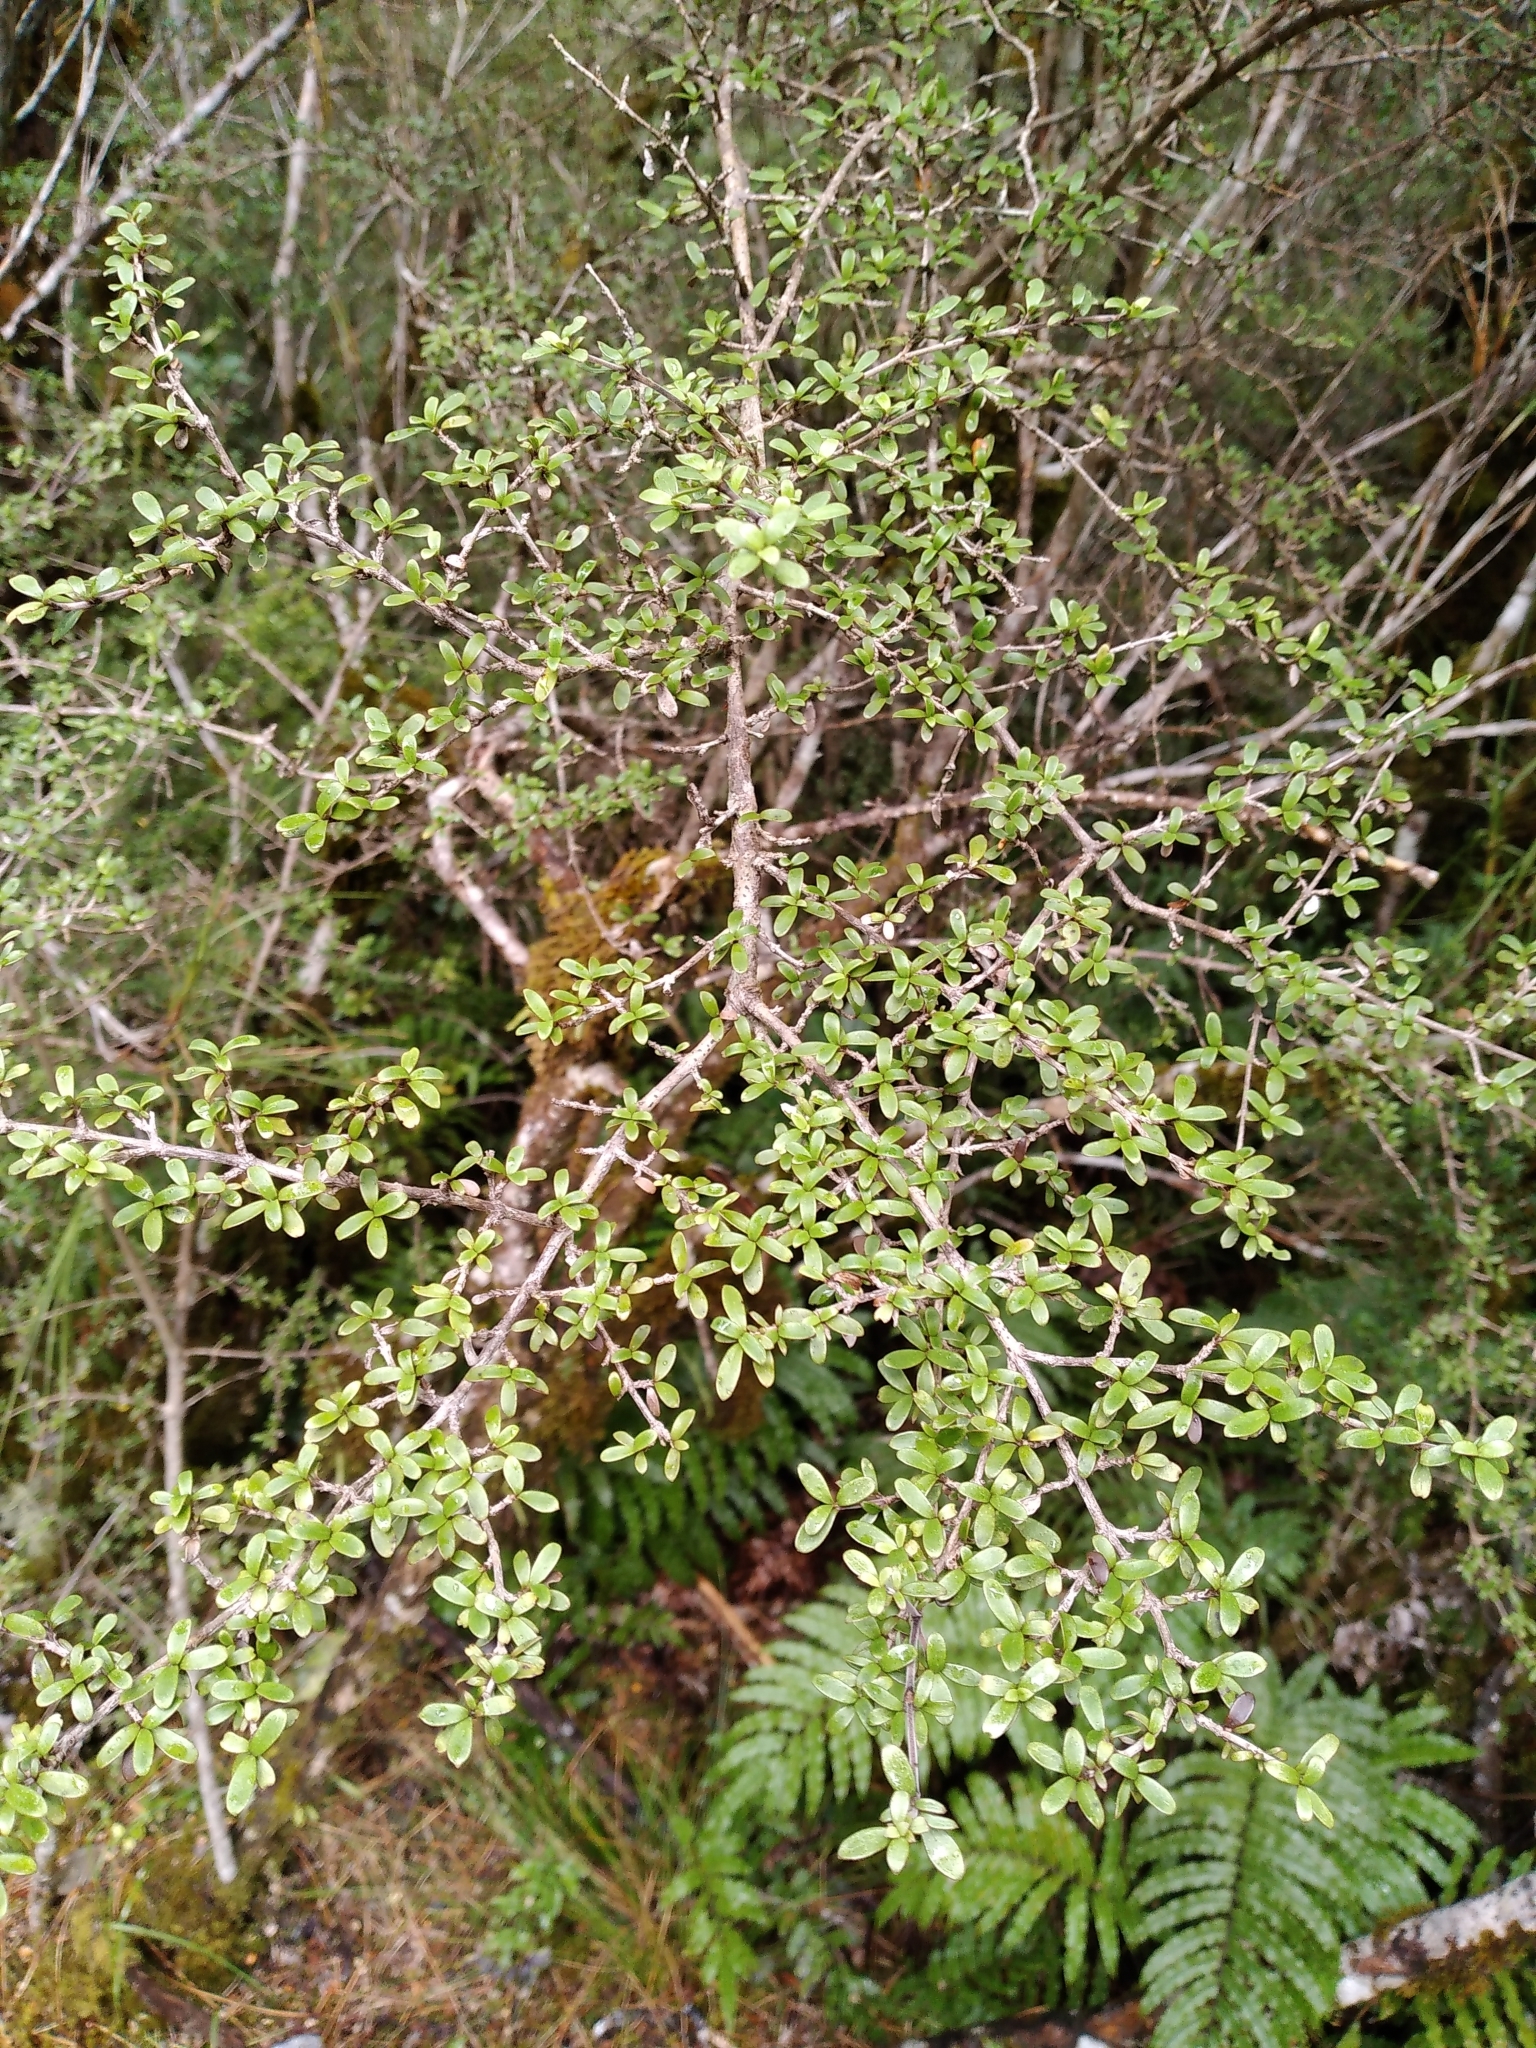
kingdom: Plantae
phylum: Tracheophyta
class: Magnoliopsida
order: Gentianales
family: Rubiaceae
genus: Coprosma
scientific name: Coprosma dumosa
